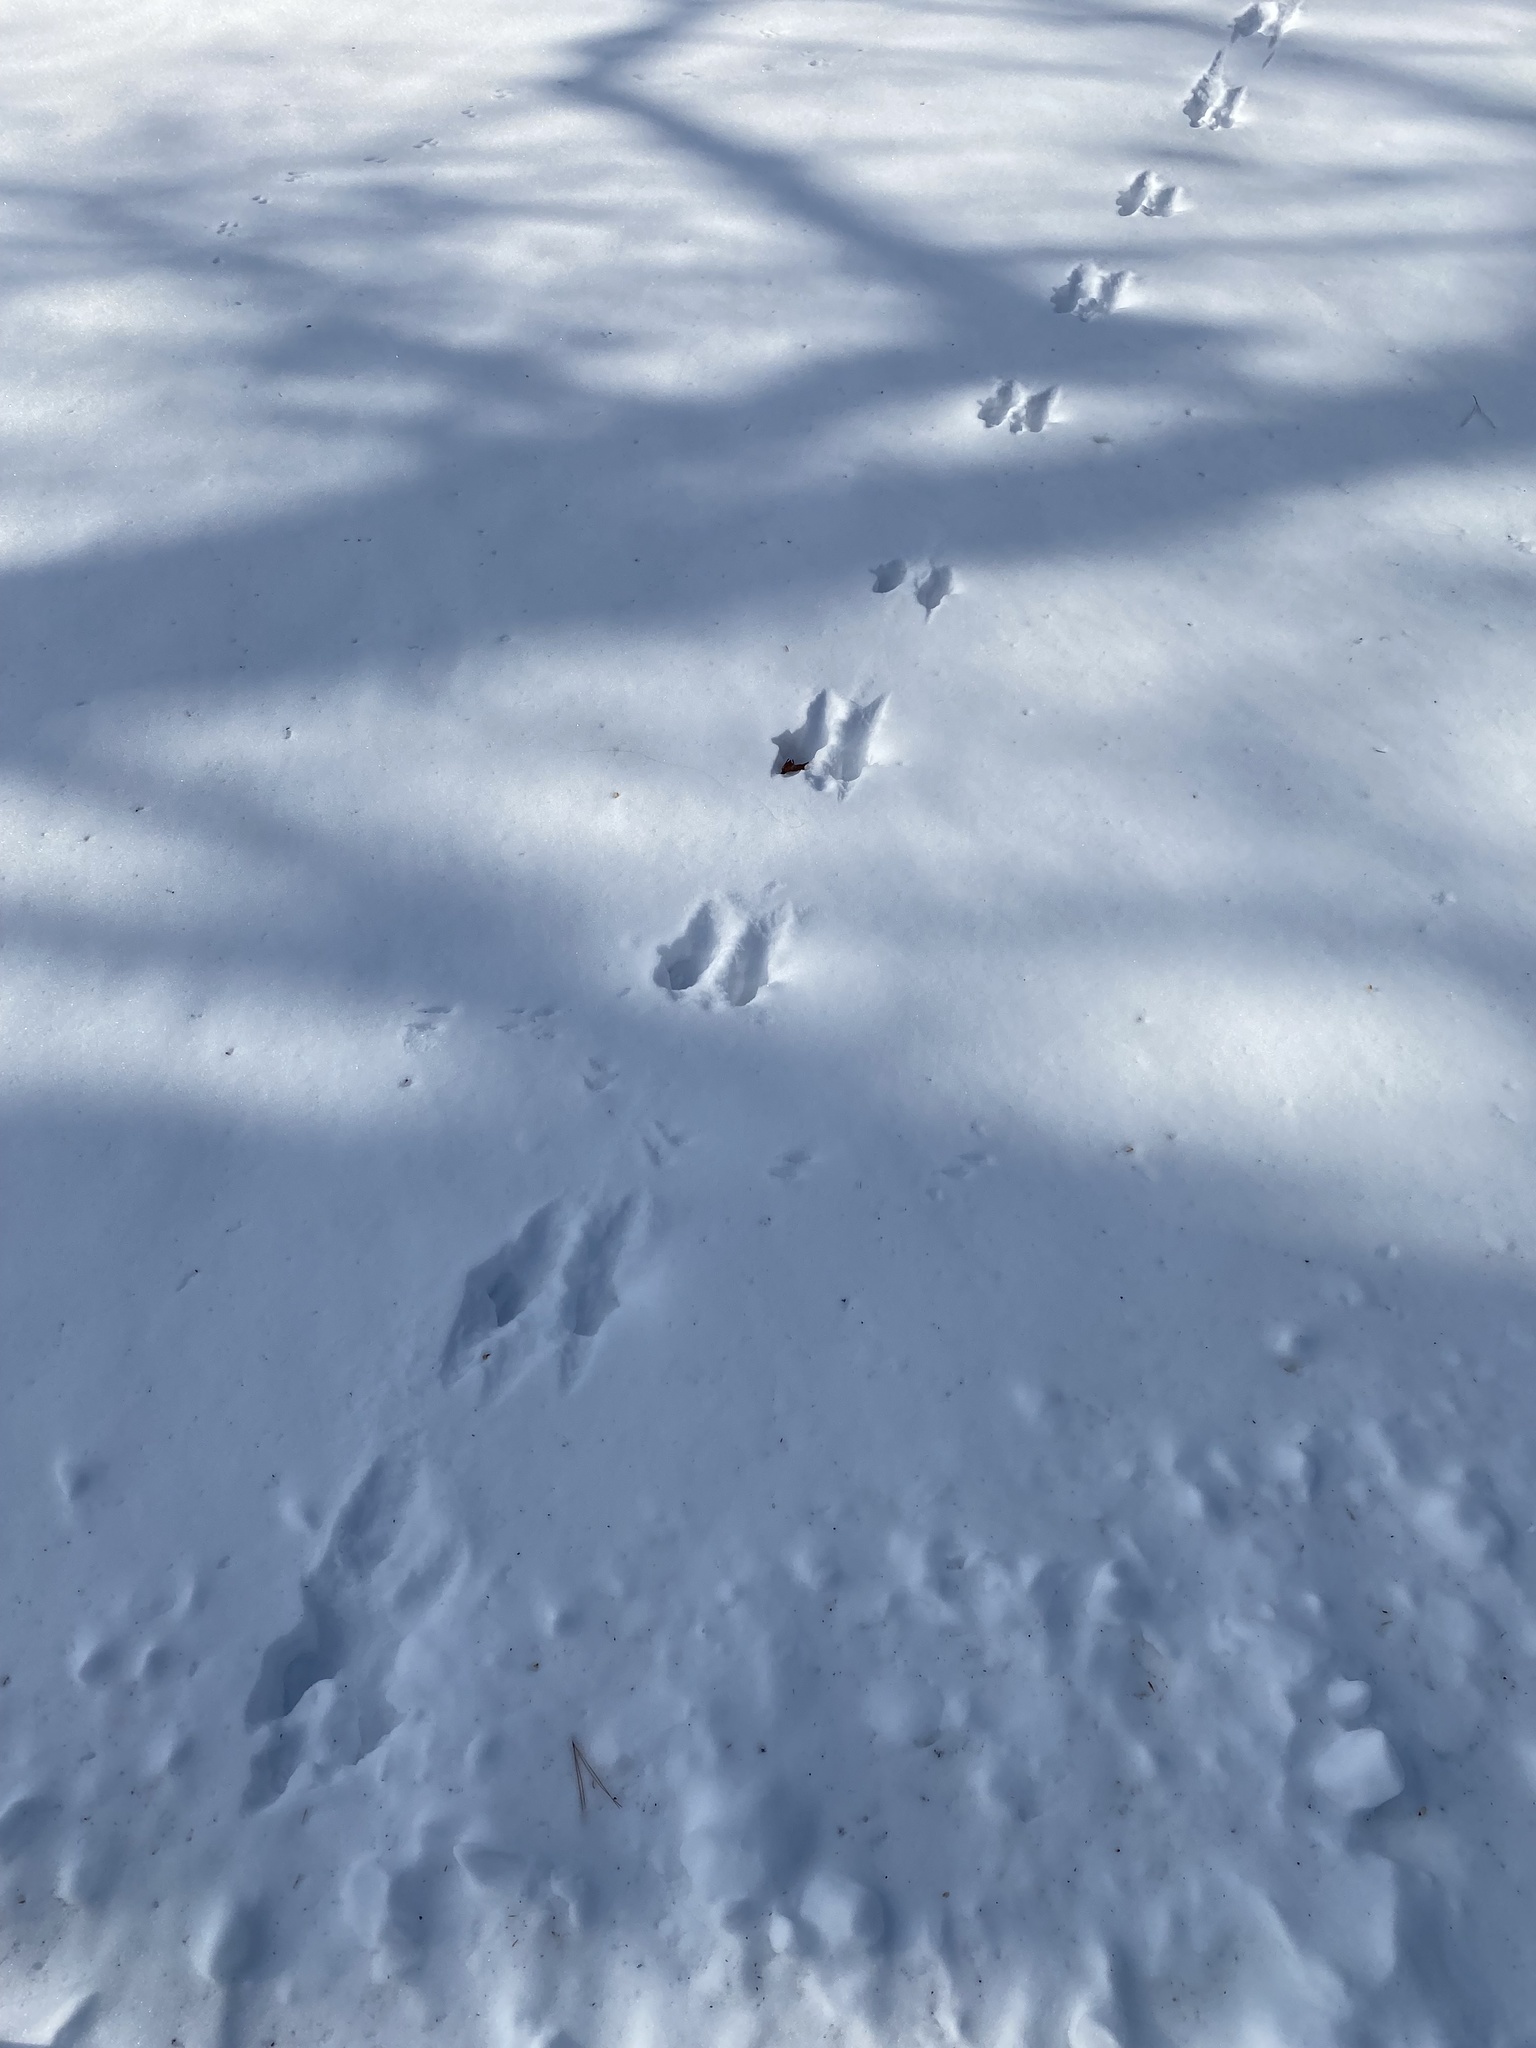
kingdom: Animalia
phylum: Chordata
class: Mammalia
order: Rodentia
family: Sciuridae
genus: Sciurus
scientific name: Sciurus carolinensis
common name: Eastern gray squirrel
